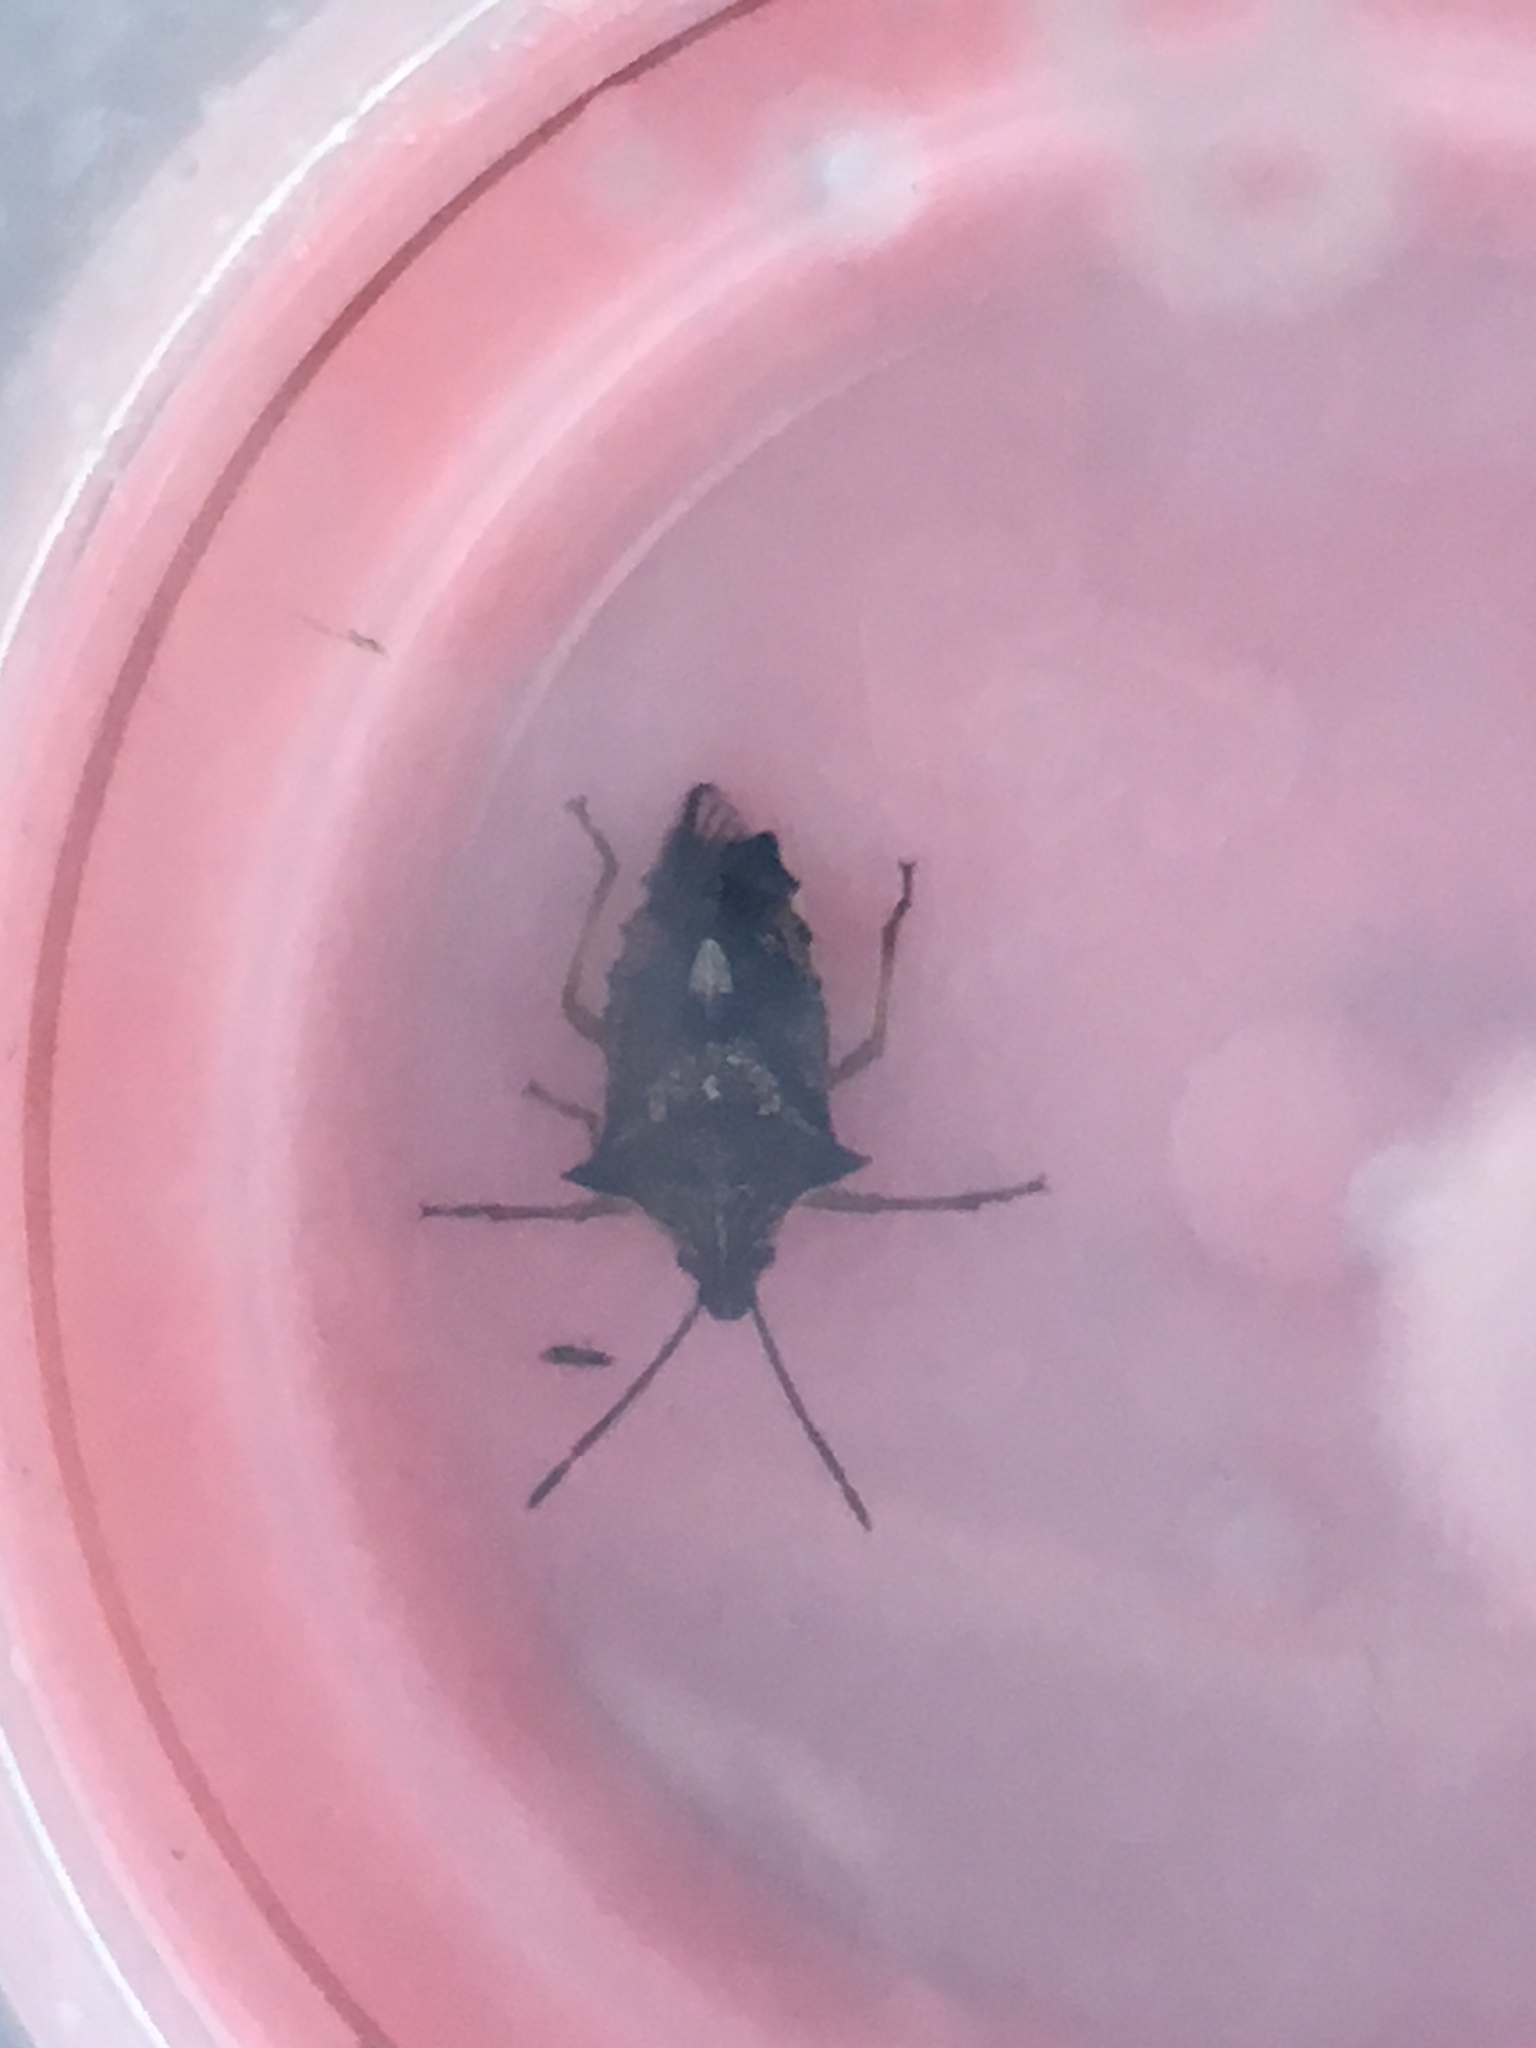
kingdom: Animalia
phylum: Arthropoda
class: Insecta
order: Hemiptera
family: Pentatomidae
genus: Oechalia
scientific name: Oechalia schellenbergii
